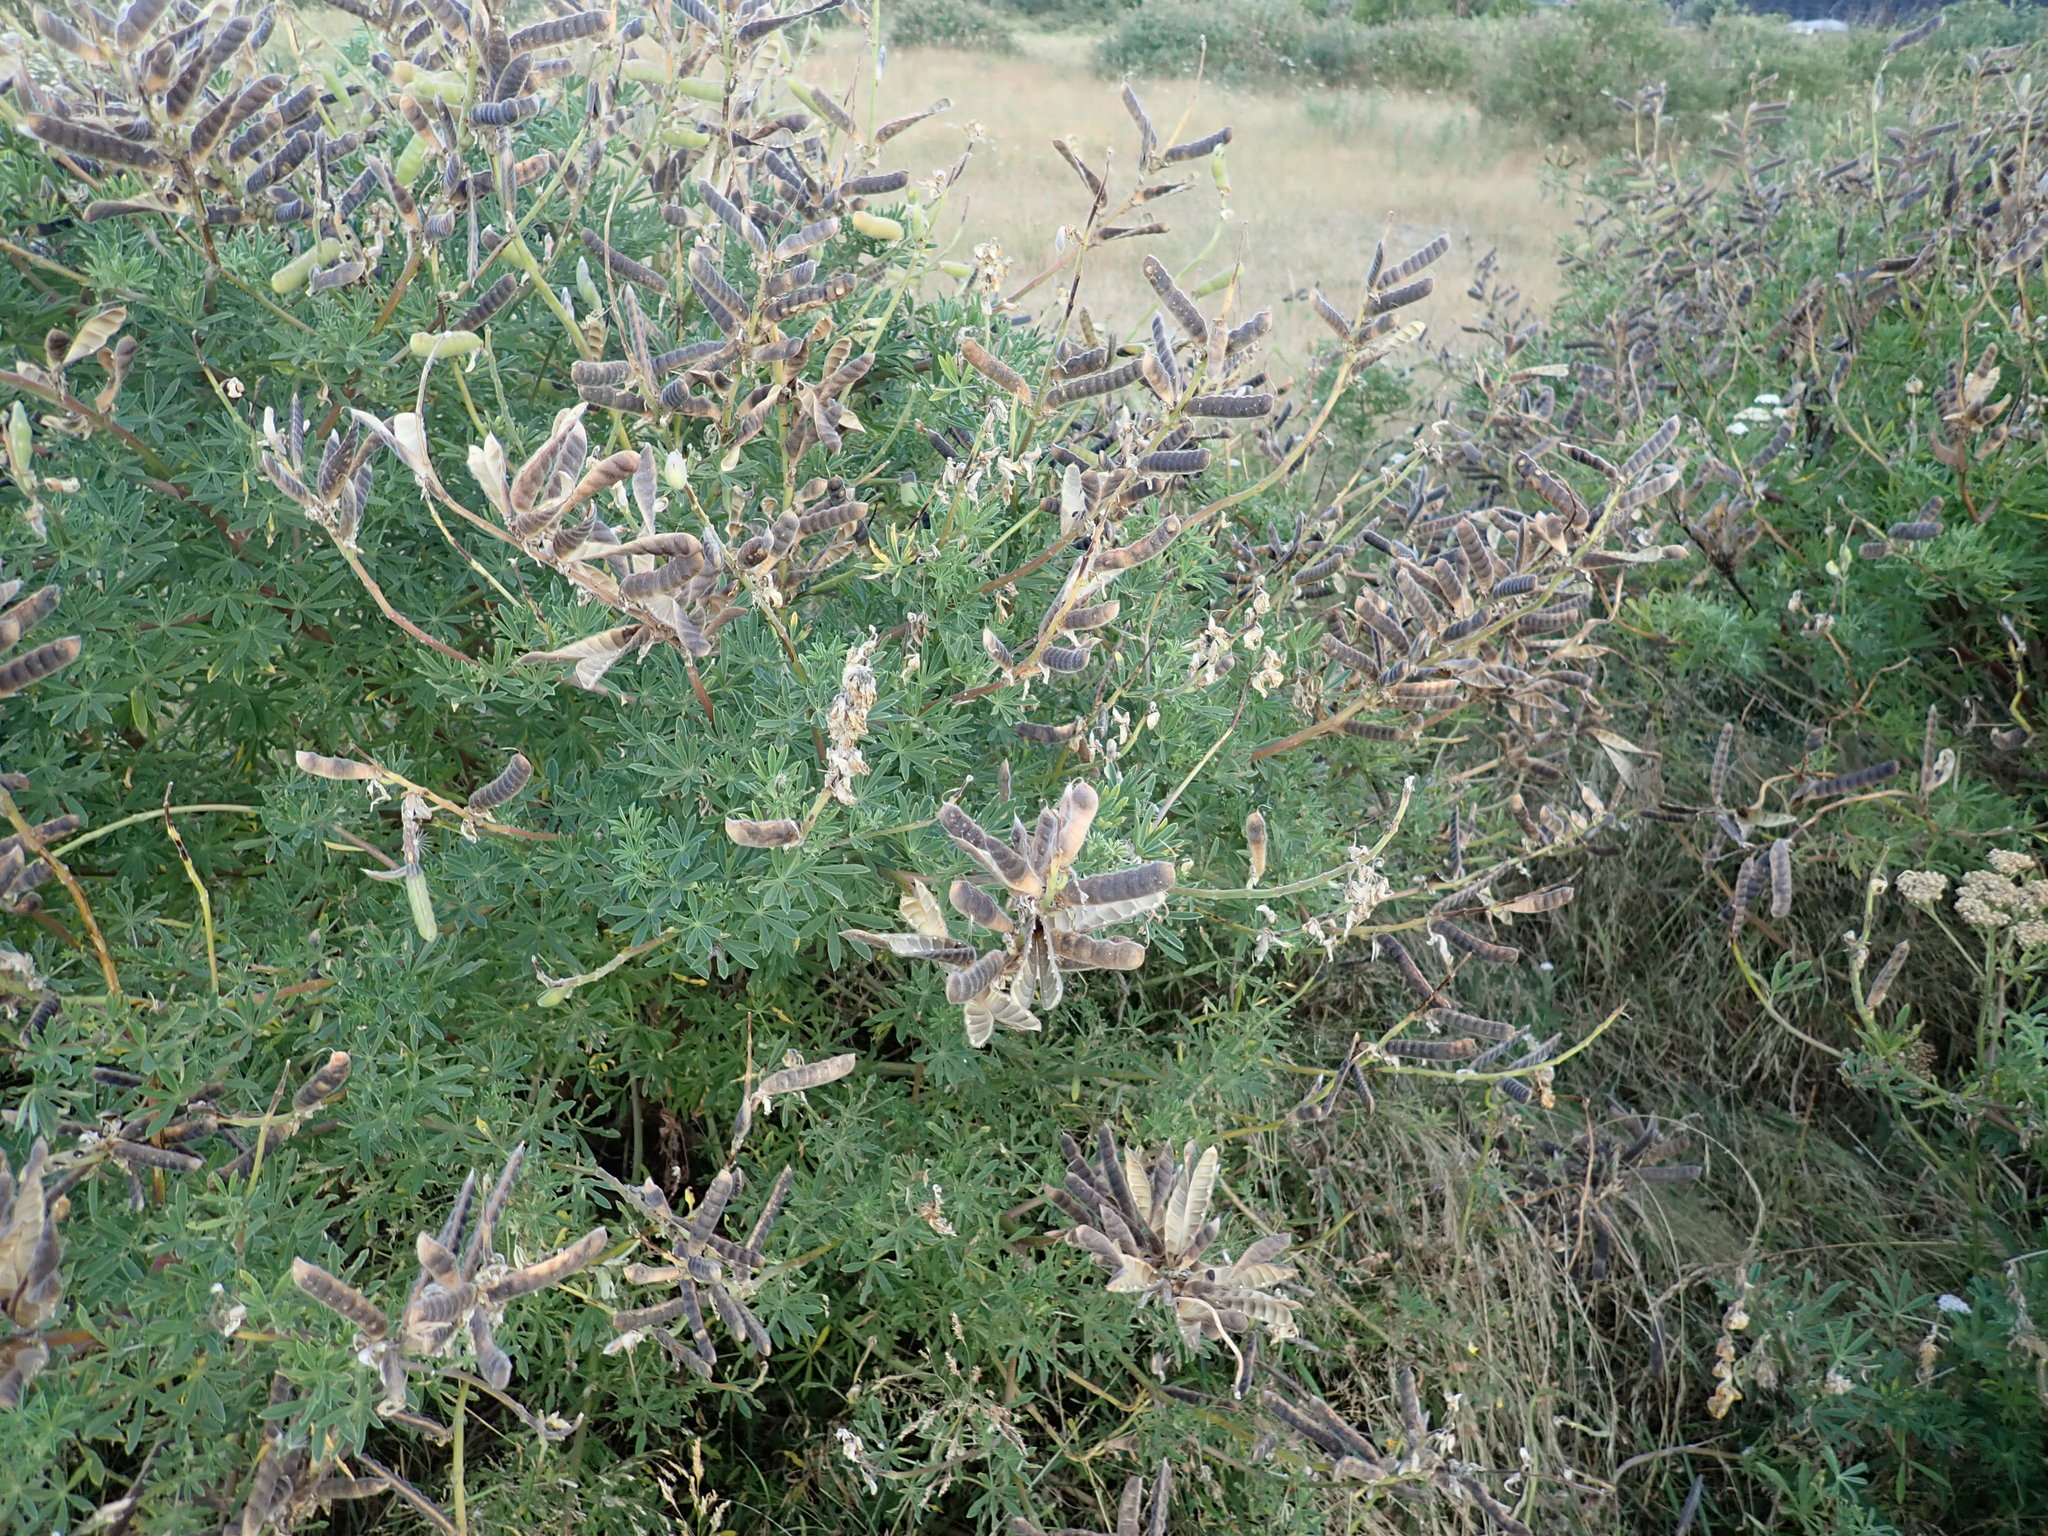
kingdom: Plantae
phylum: Tracheophyta
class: Magnoliopsida
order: Fabales
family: Fabaceae
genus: Lupinus
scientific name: Lupinus arboreus
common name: Yellow bush lupine
